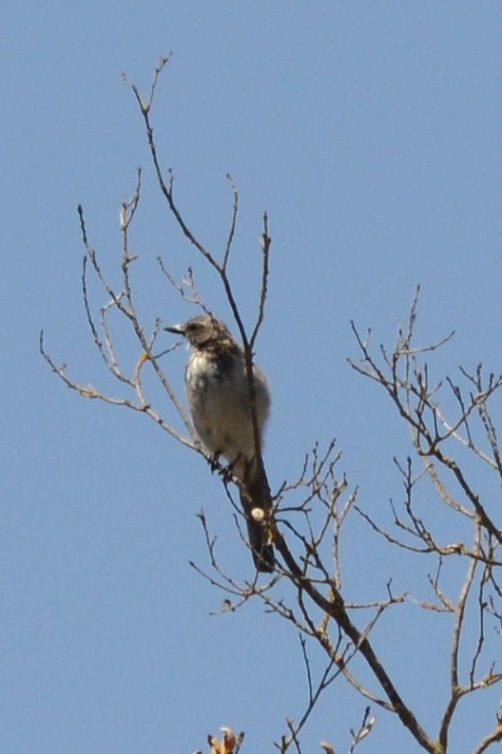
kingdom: Animalia
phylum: Chordata
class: Aves
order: Passeriformes
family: Corvidae
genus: Aphelocoma
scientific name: Aphelocoma californica
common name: California scrub-jay
